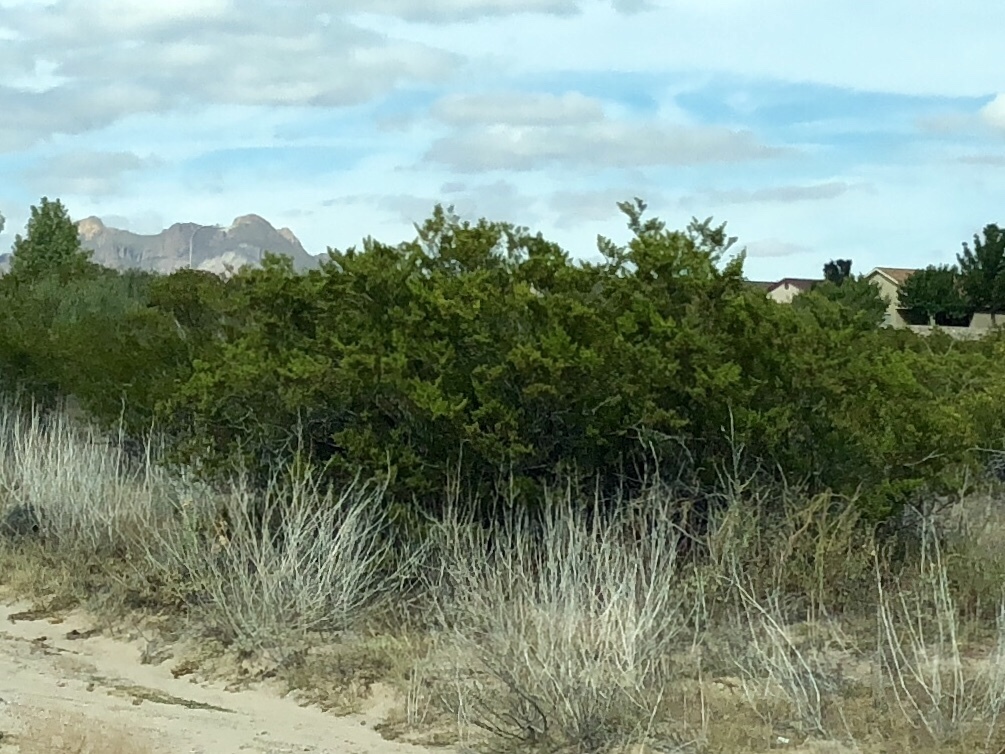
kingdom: Plantae
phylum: Tracheophyta
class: Magnoliopsida
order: Zygophyllales
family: Zygophyllaceae
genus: Larrea
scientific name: Larrea tridentata
